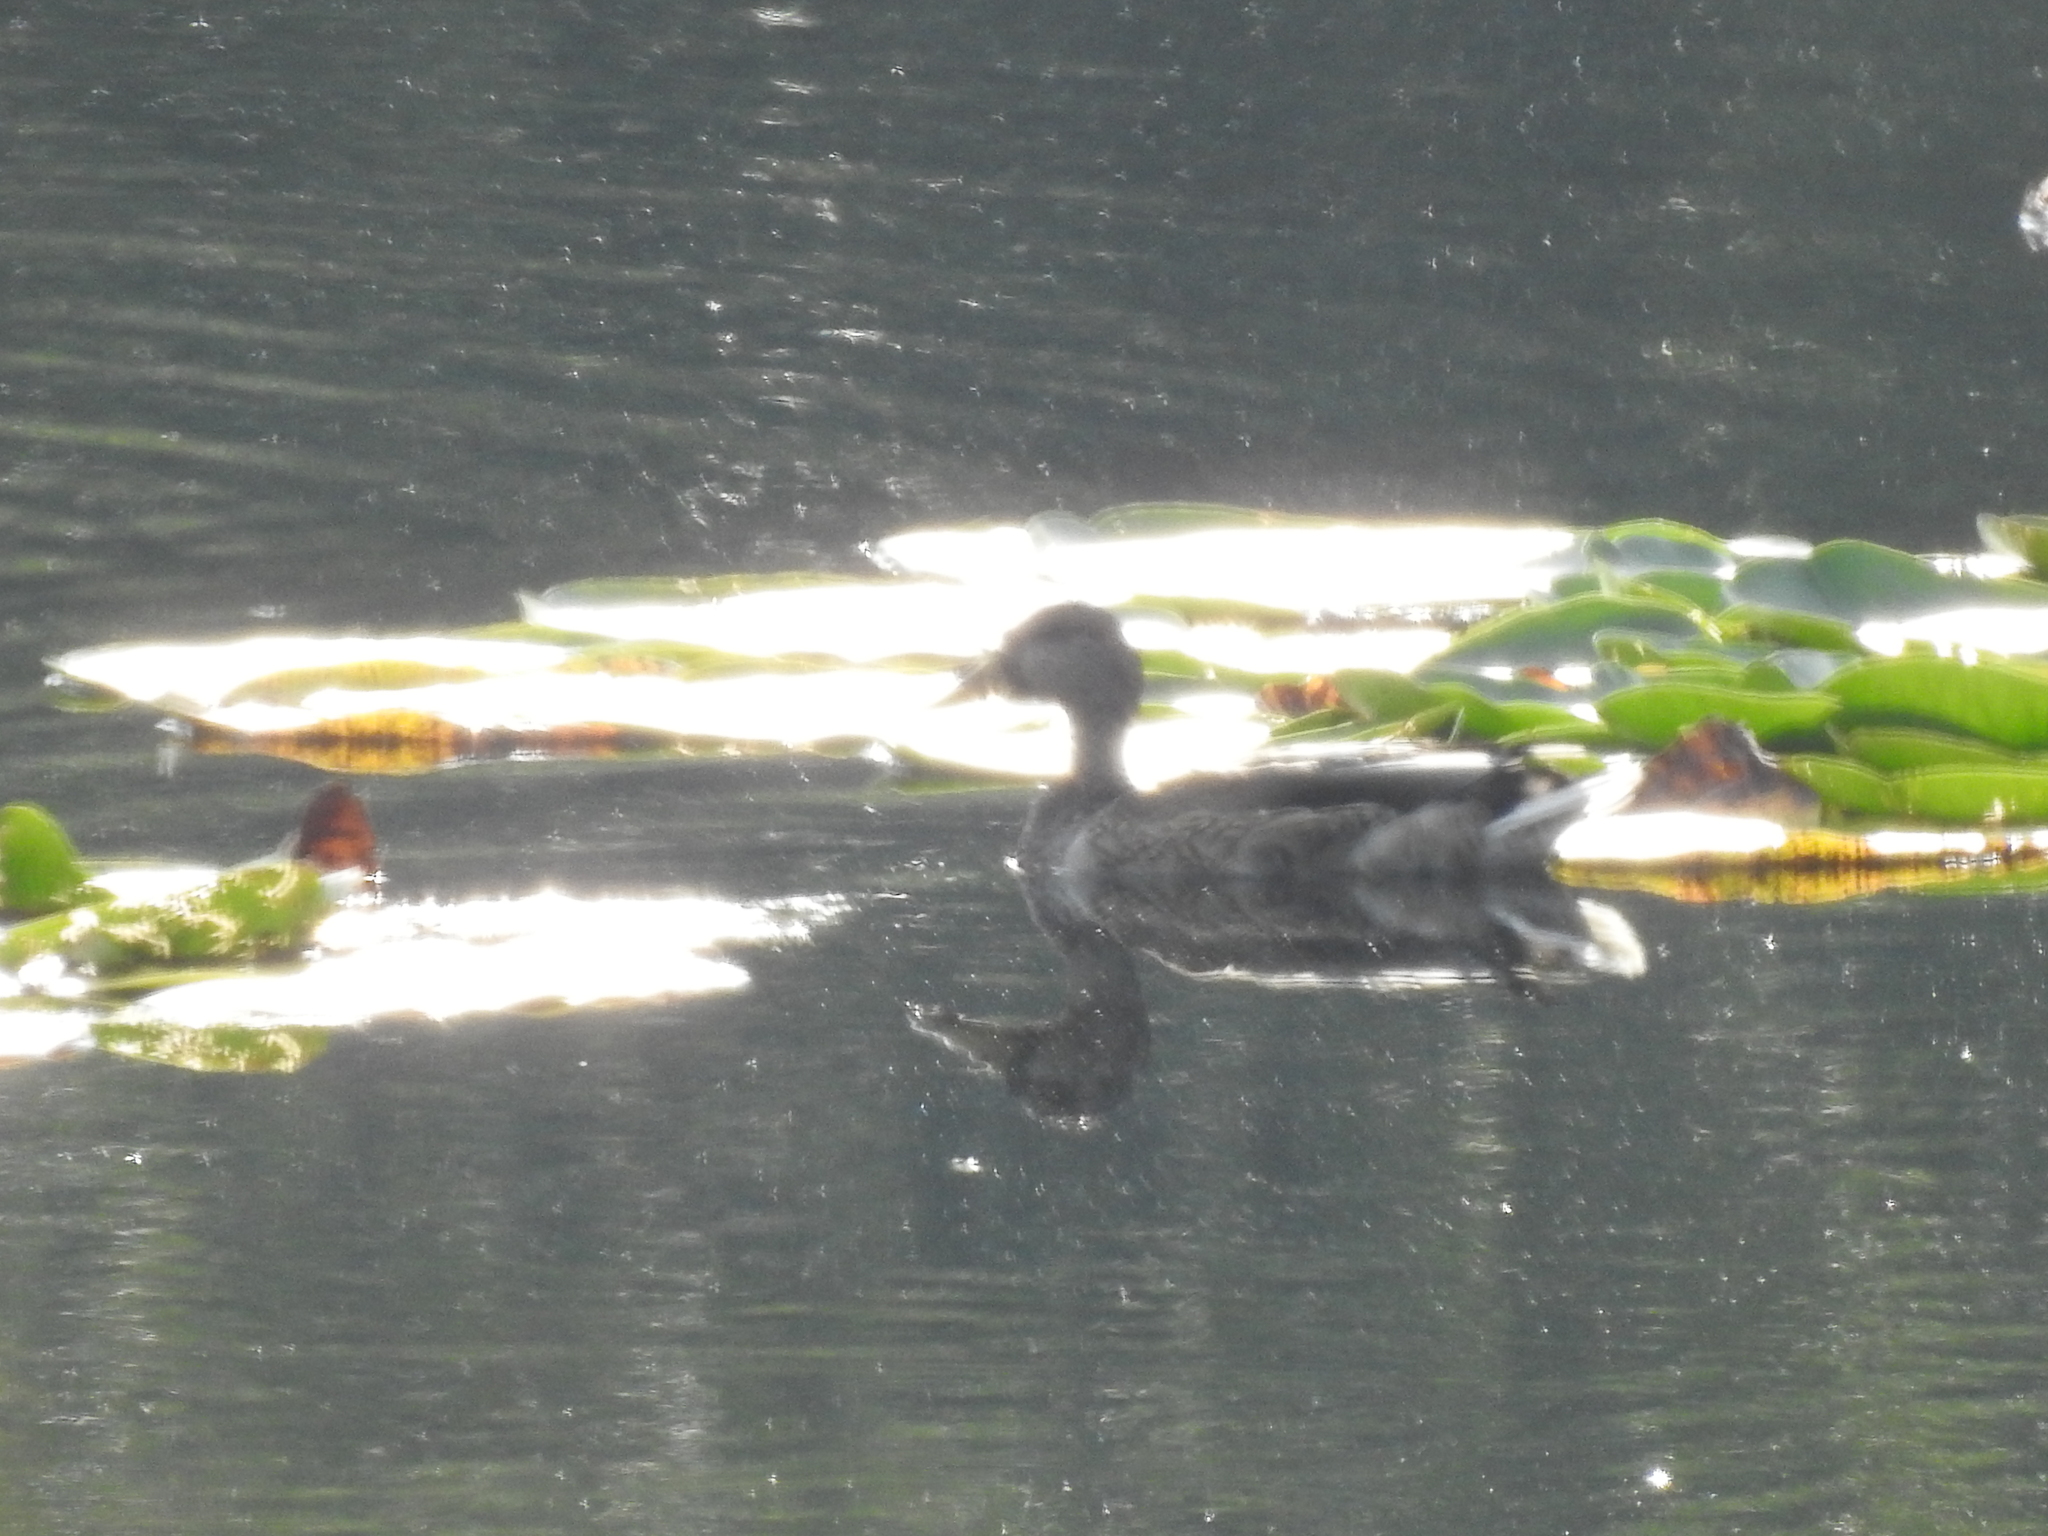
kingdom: Animalia
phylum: Chordata
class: Aves
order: Anseriformes
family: Anatidae
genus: Anas
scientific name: Anas platyrhynchos
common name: Mallard
